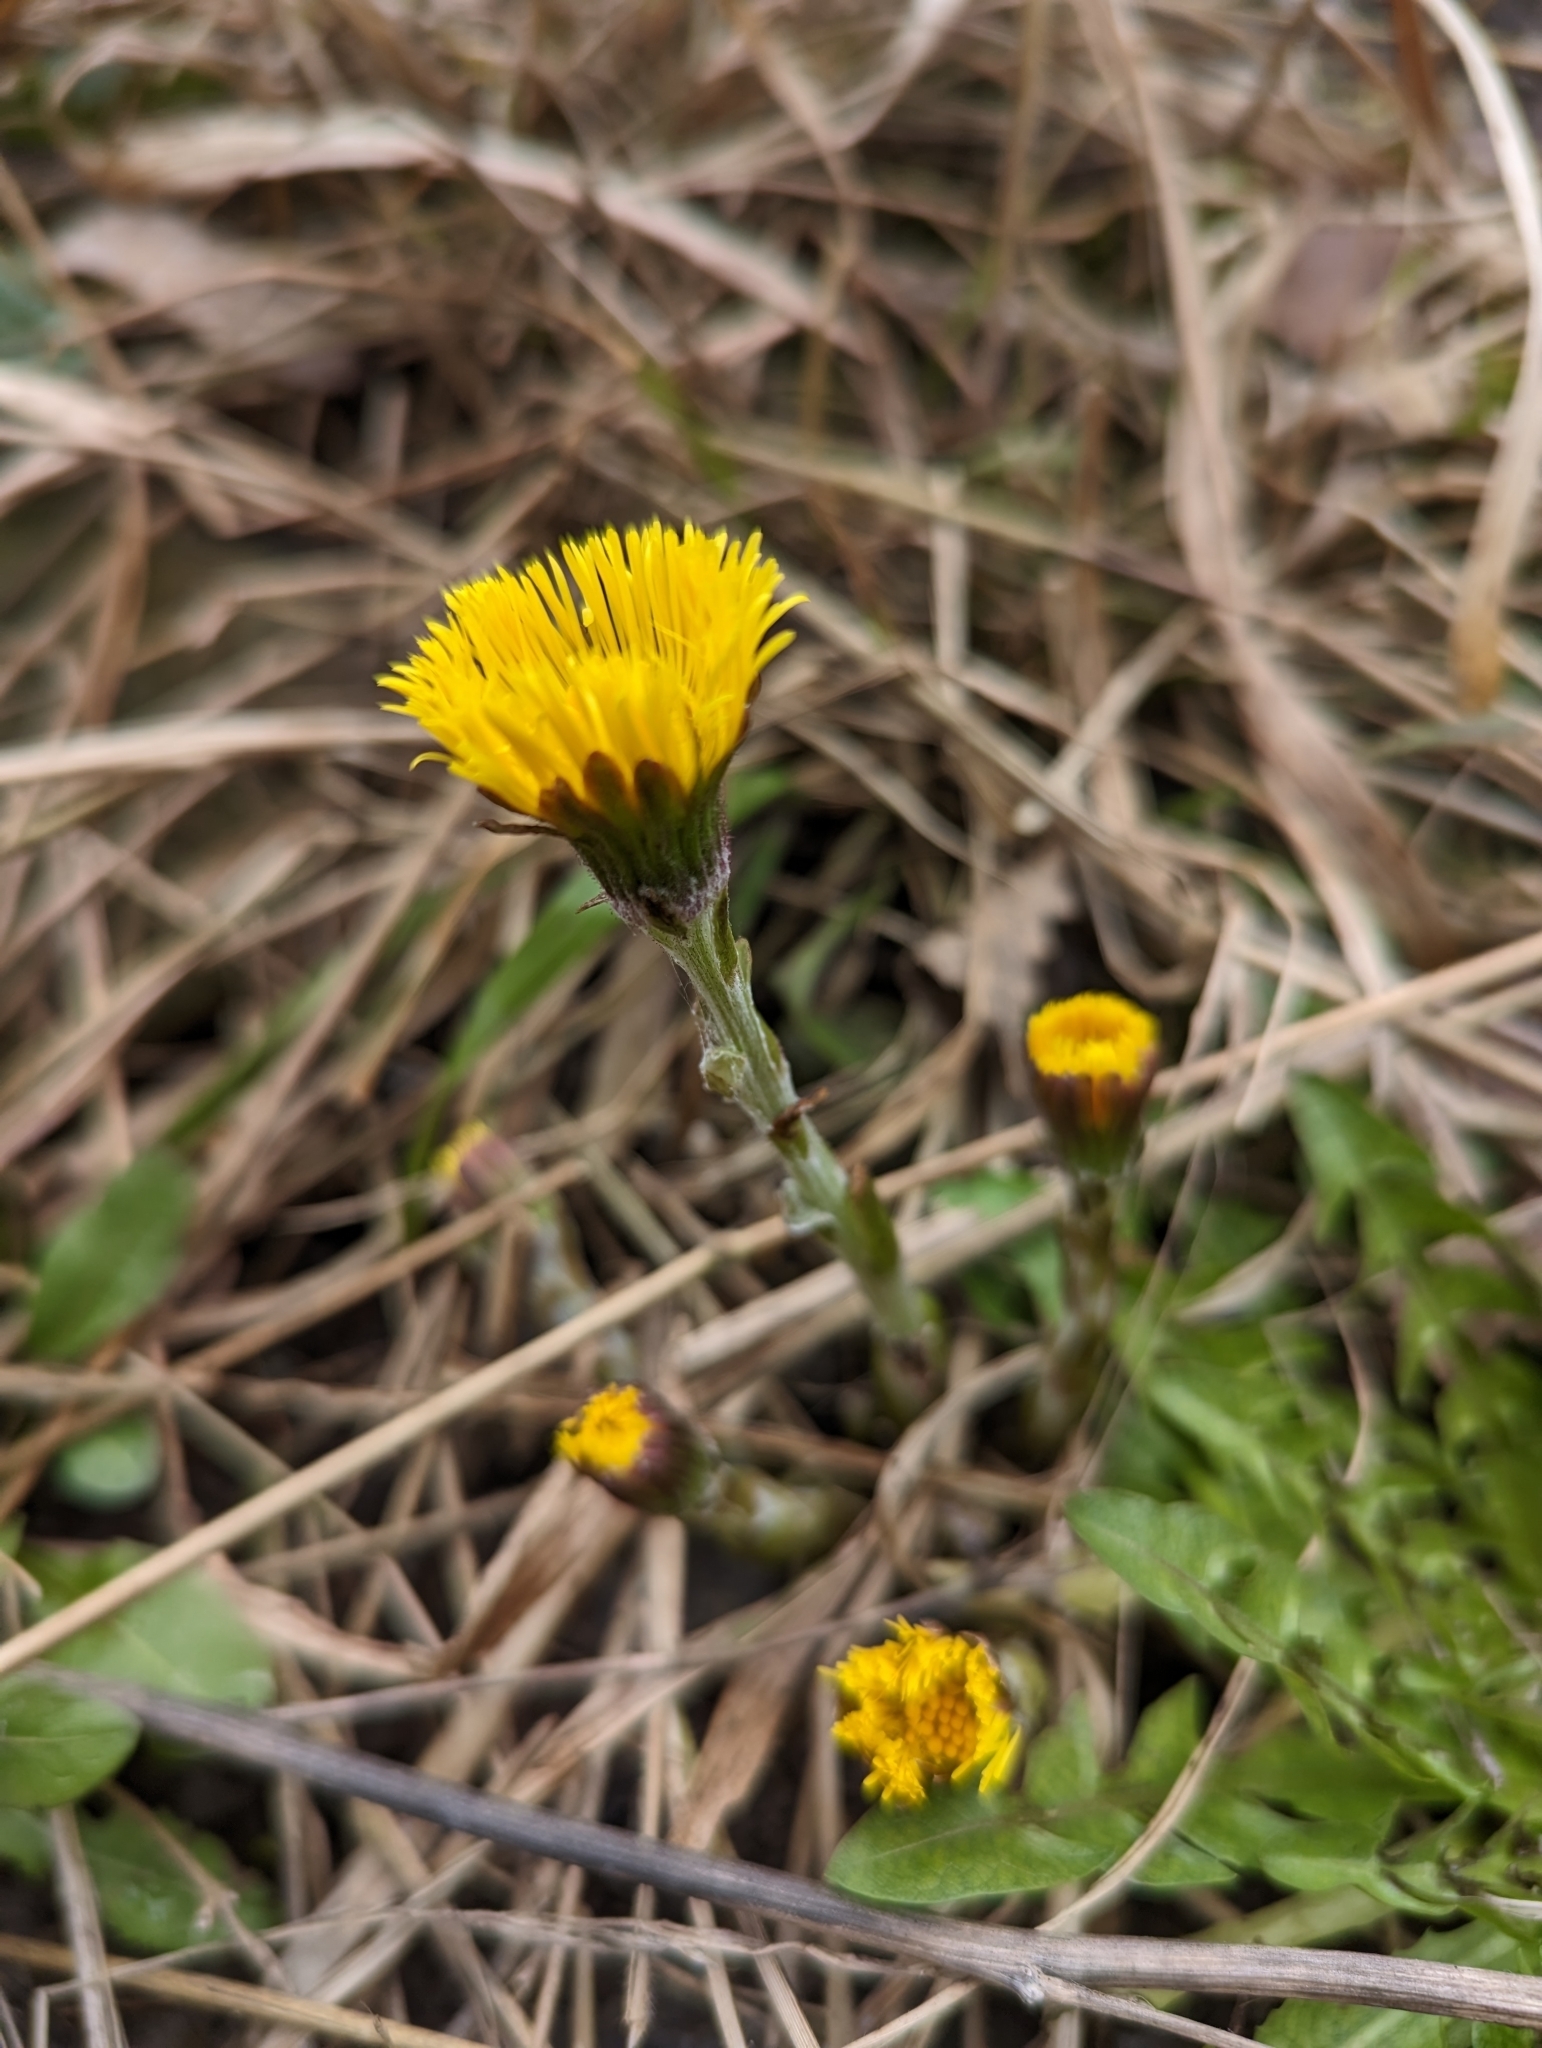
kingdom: Plantae
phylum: Tracheophyta
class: Magnoliopsida
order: Asterales
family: Asteraceae
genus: Tussilago
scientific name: Tussilago farfara
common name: Coltsfoot
